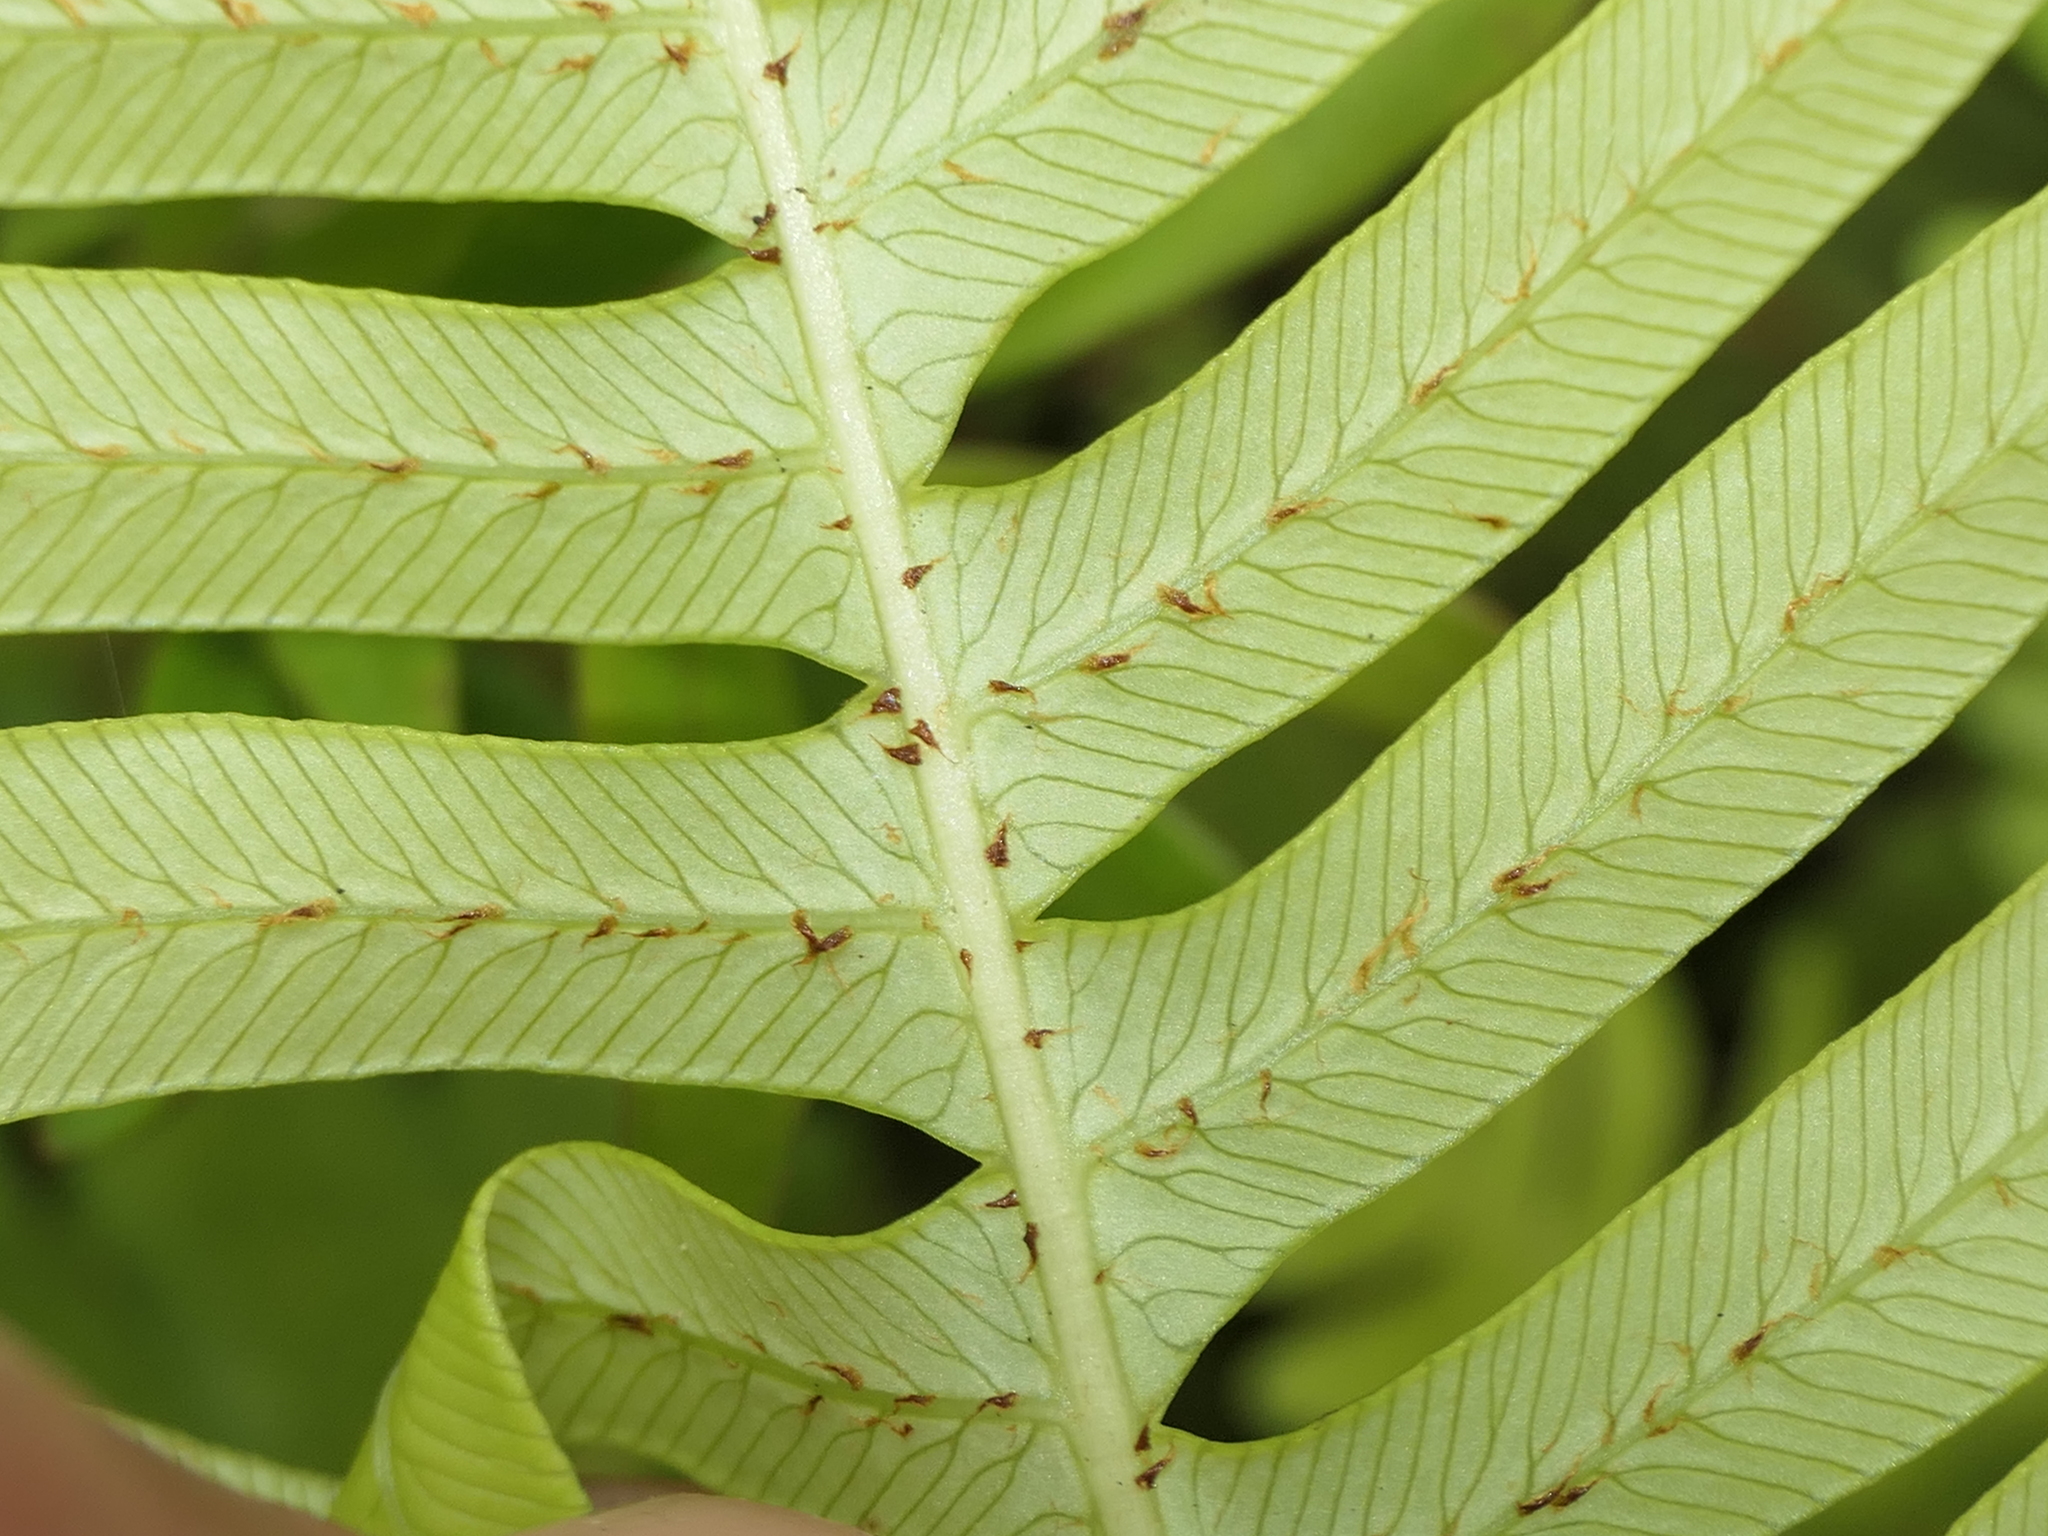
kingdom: Plantae
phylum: Tracheophyta
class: Polypodiopsida
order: Polypodiales
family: Blechnaceae
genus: Lomaria
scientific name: Lomaria nuda
